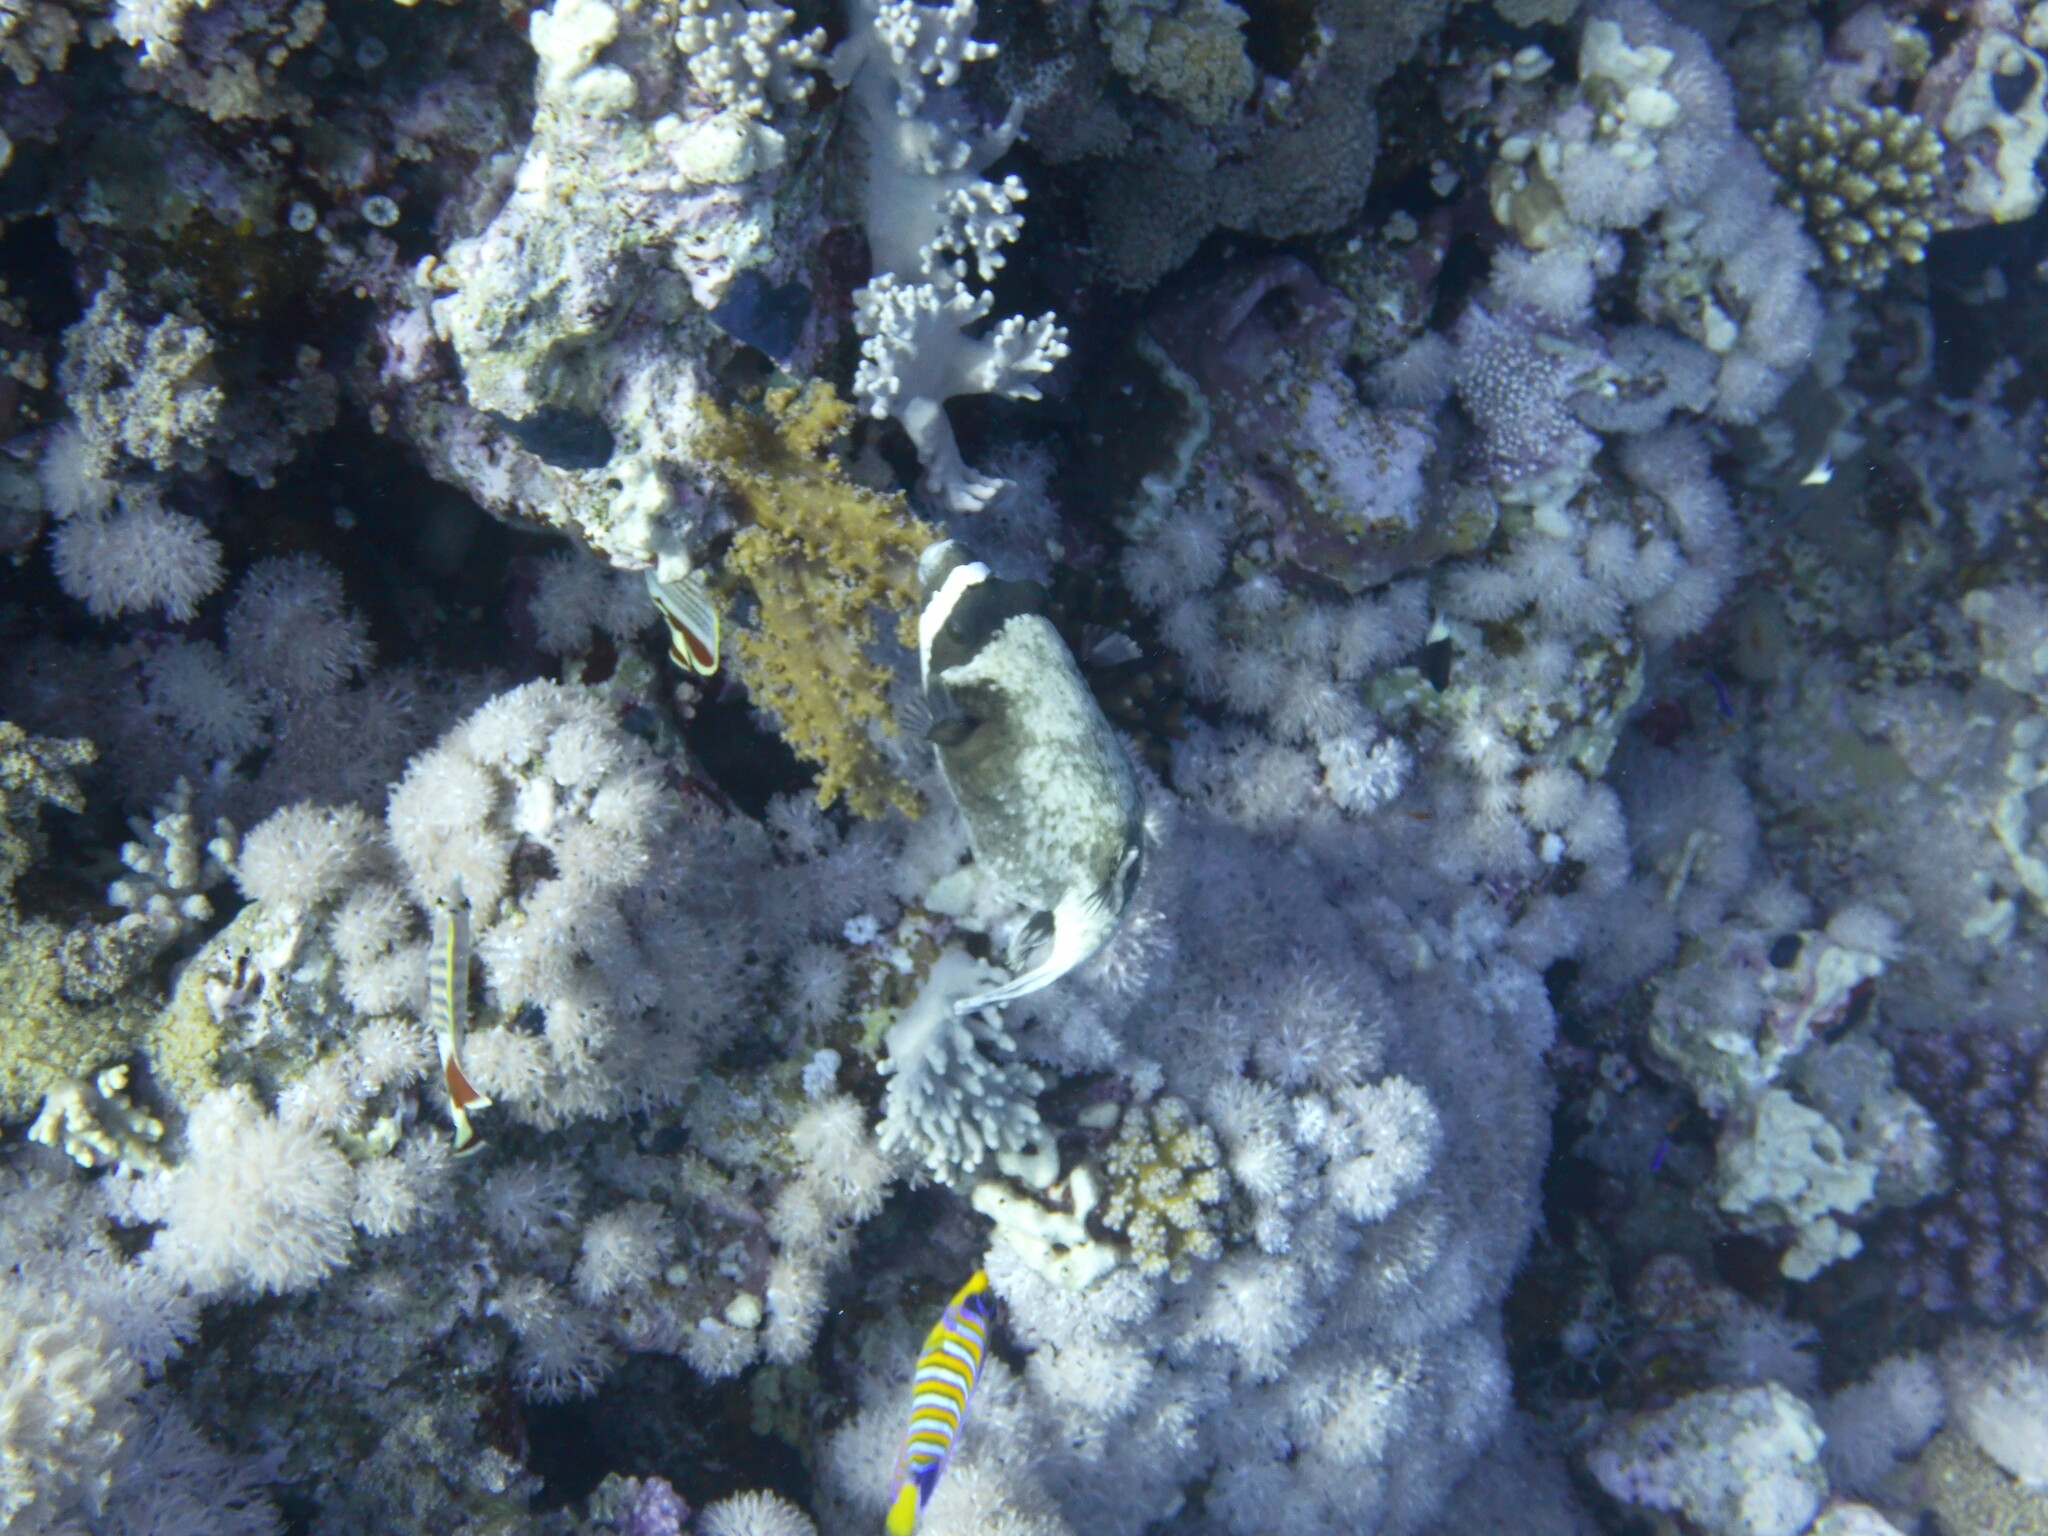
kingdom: Animalia
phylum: Chordata
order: Tetraodontiformes
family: Tetraodontidae
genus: Arothron
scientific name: Arothron diadematus
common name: Masked puffer
